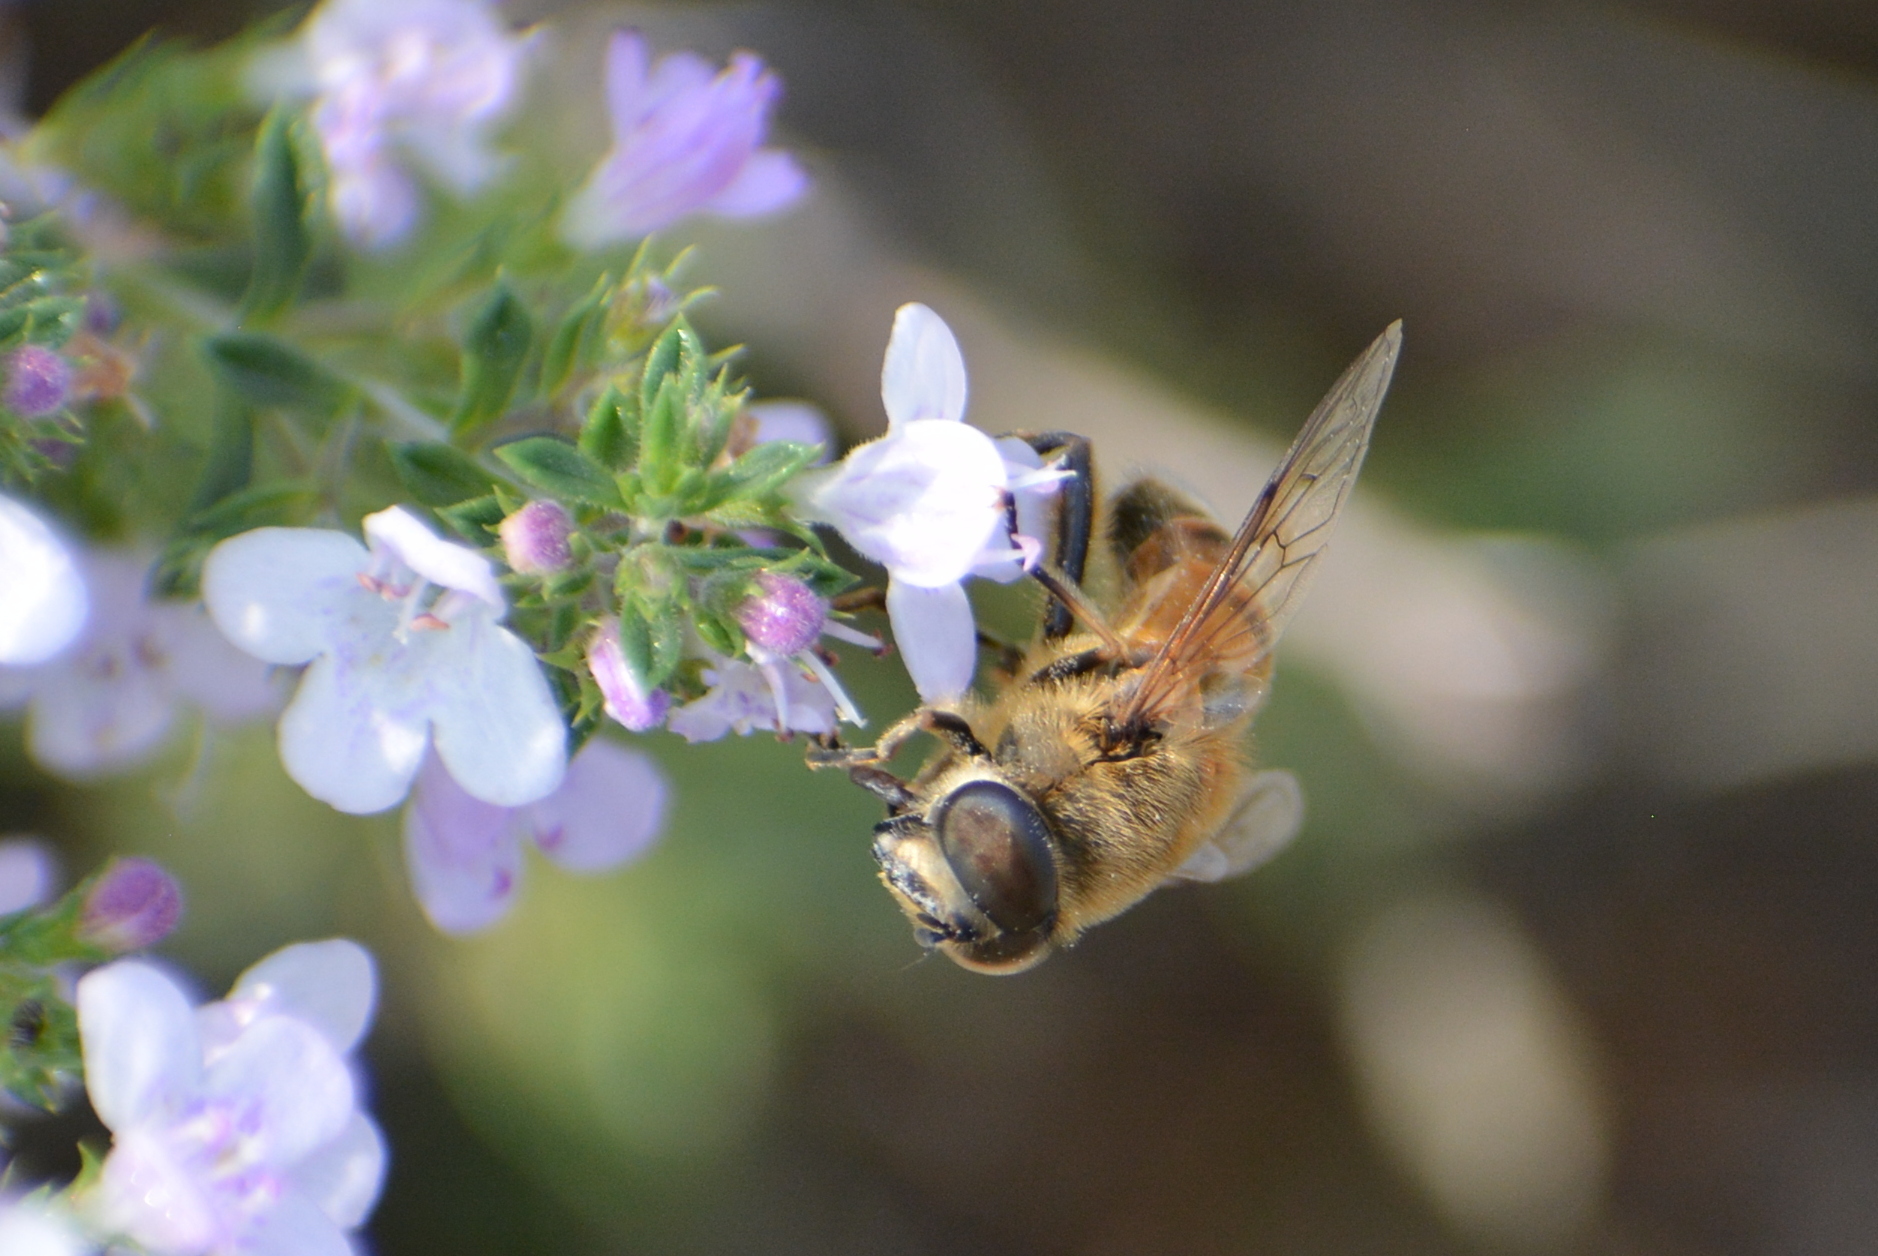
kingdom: Animalia
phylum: Arthropoda
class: Insecta
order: Diptera
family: Syrphidae
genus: Eristalis
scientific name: Eristalis tenax
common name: Drone fly
